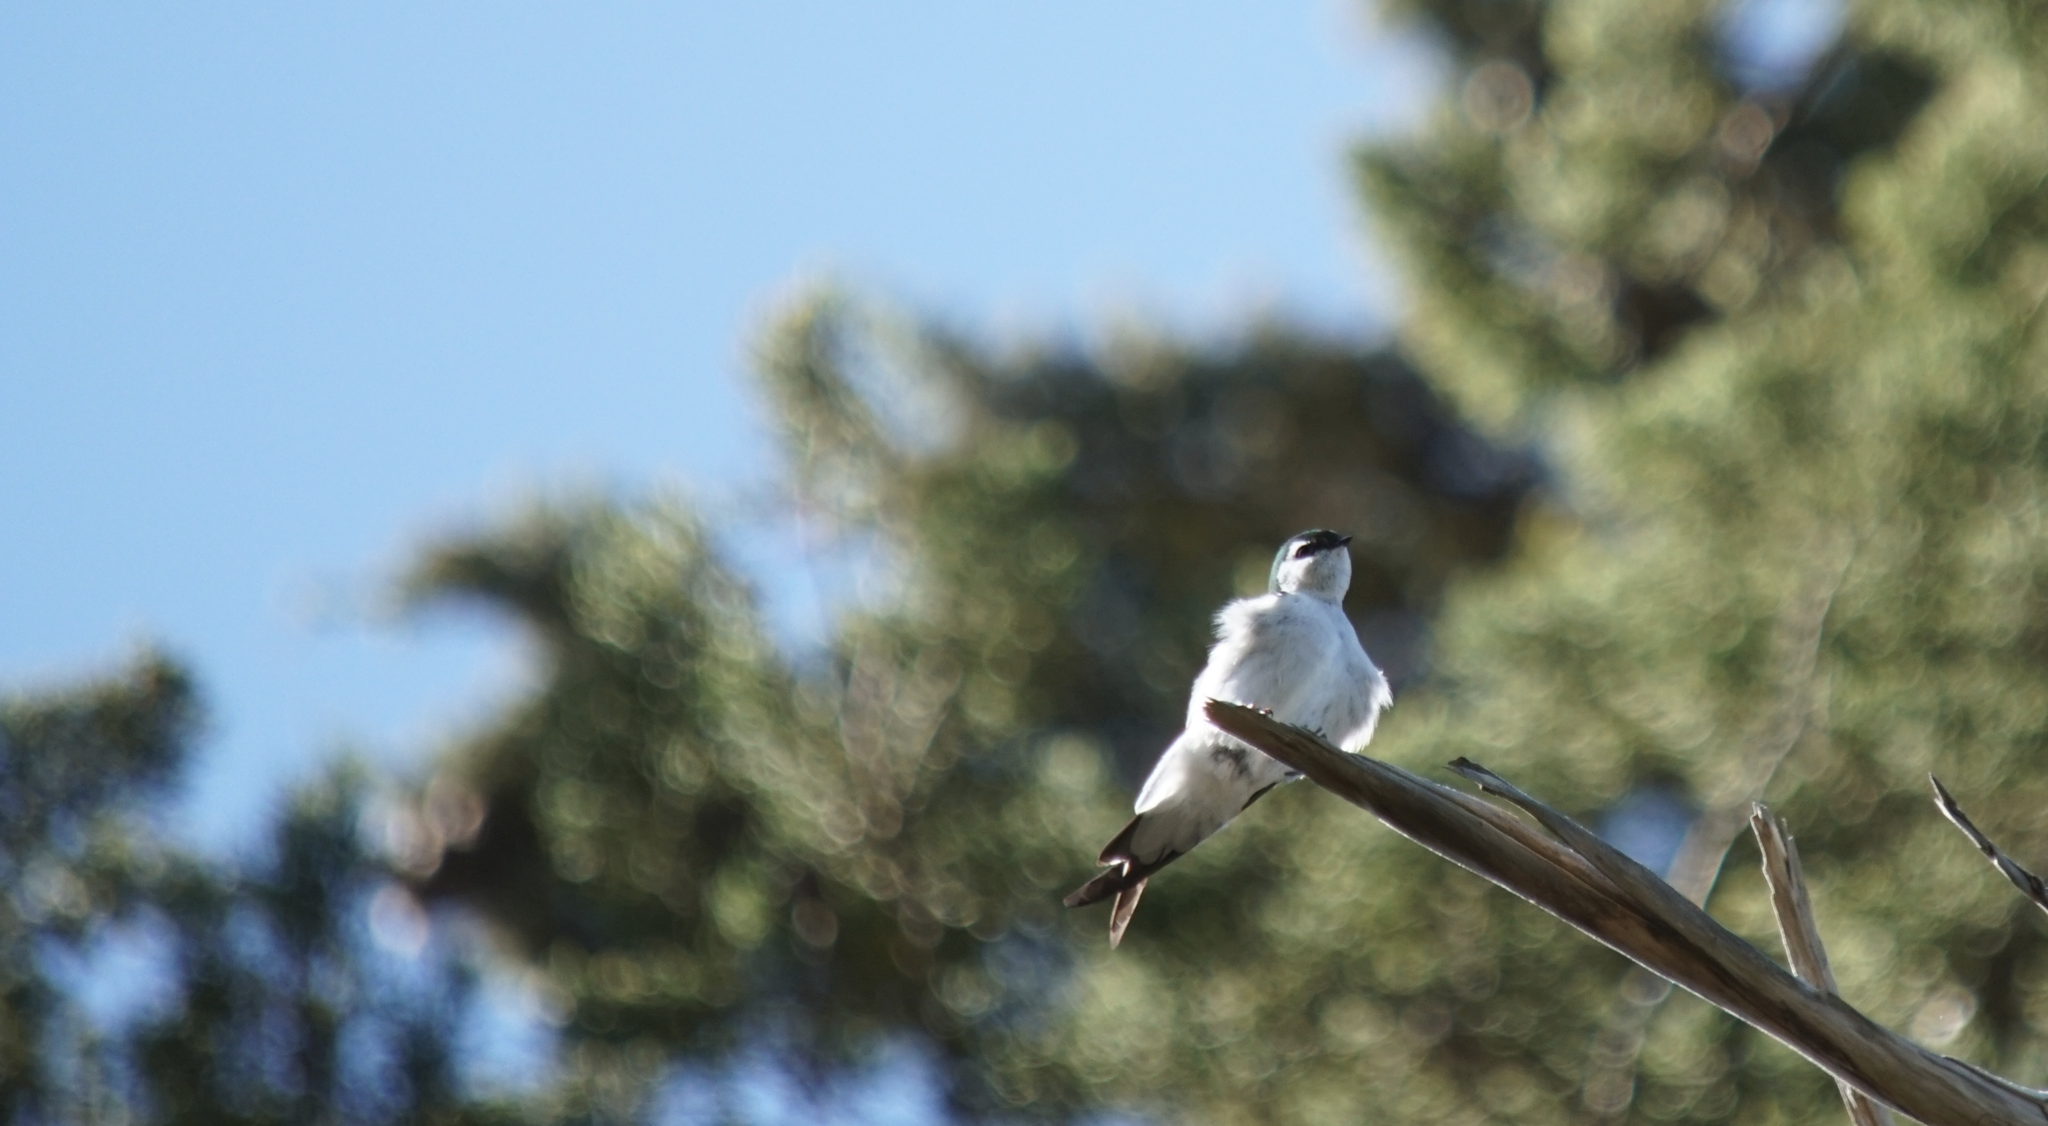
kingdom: Animalia
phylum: Chordata
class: Aves
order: Passeriformes
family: Hirundinidae
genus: Tachycineta
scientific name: Tachycineta thalassina
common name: Violet-green swallow
